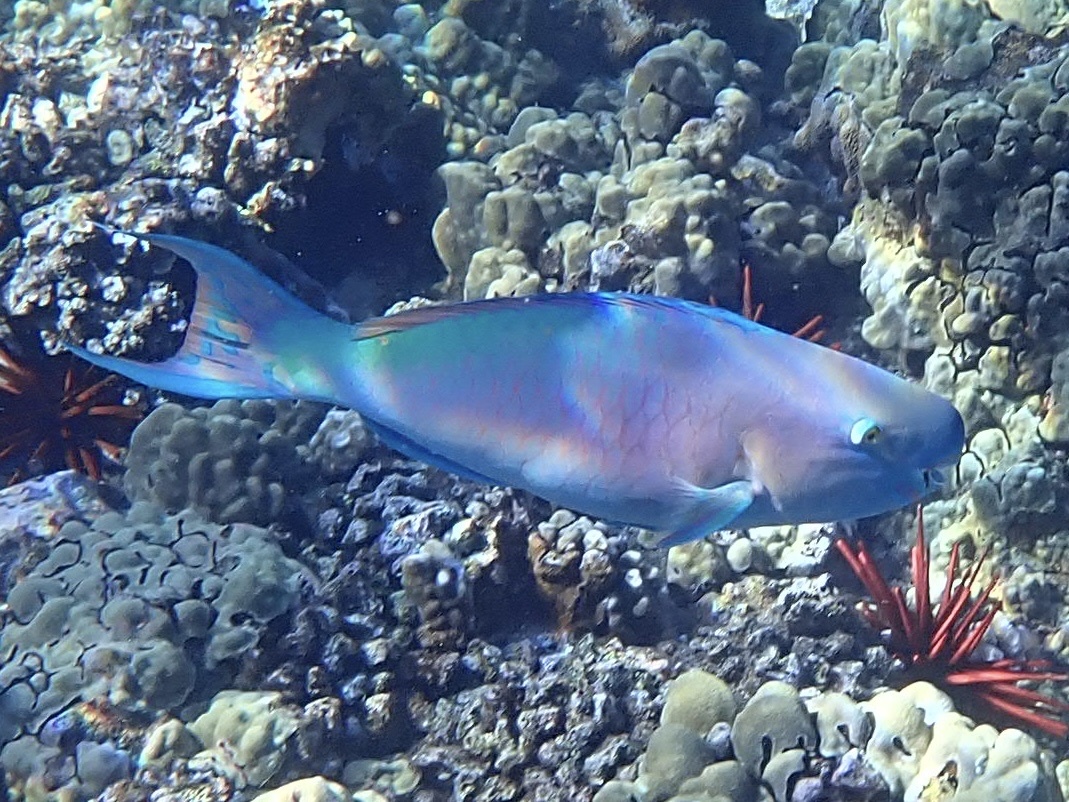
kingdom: Animalia
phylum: Chordata
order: Perciformes
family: Scaridae
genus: Scarus
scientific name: Scarus rubroviolaceus
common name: Ember parrotfish
